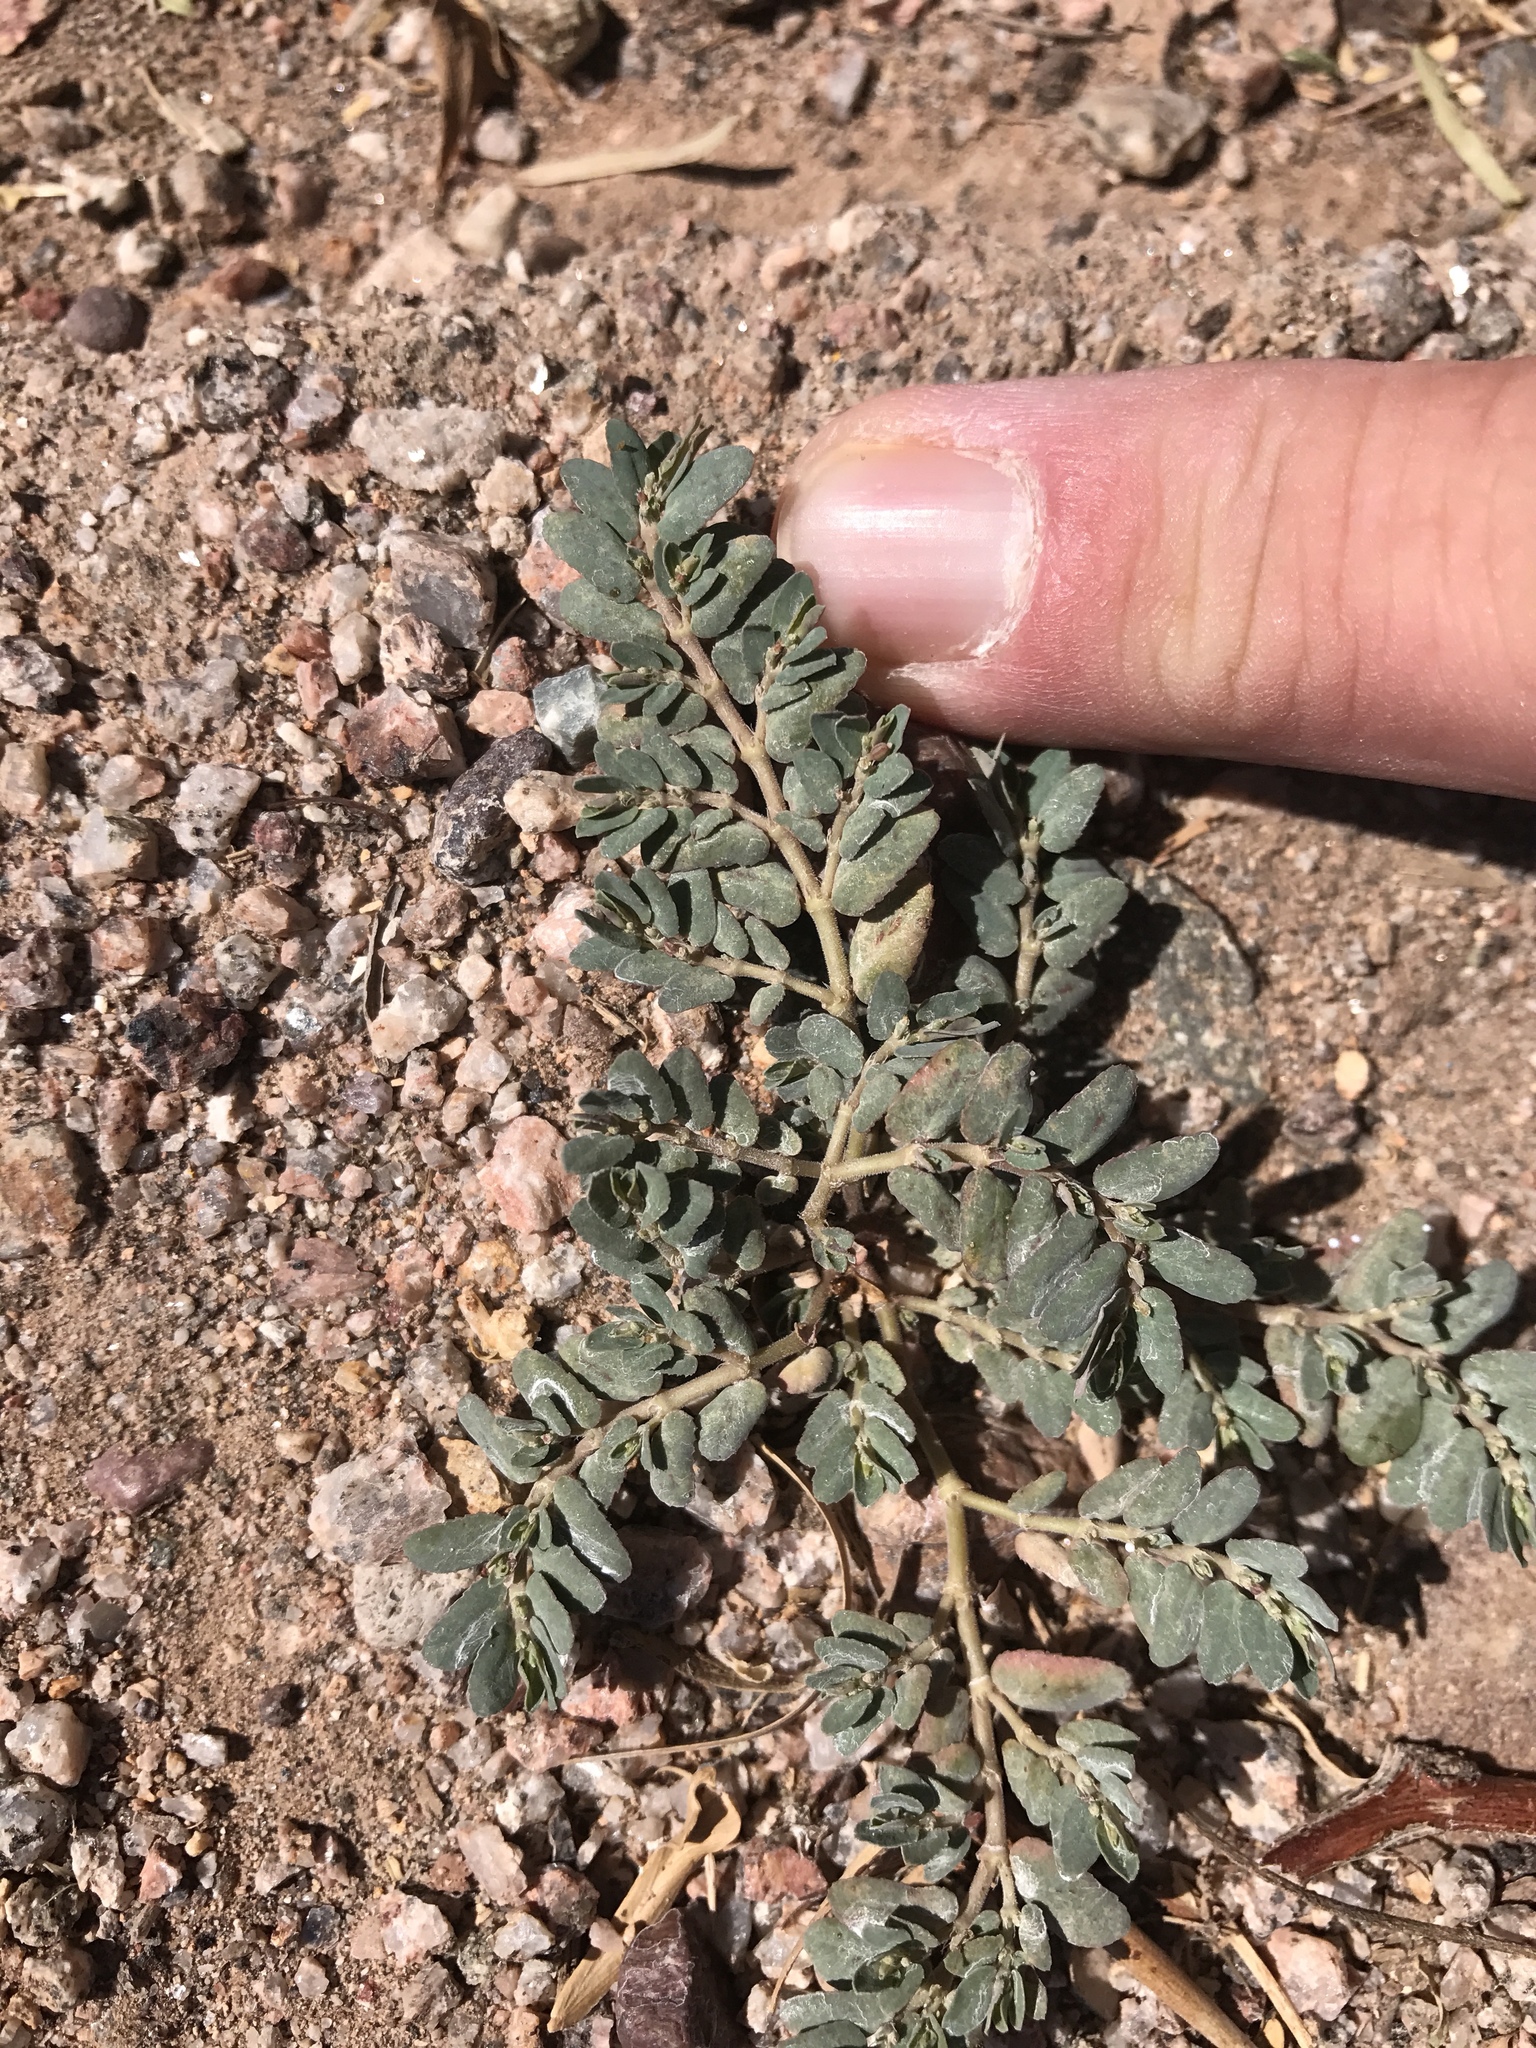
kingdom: Plantae
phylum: Tracheophyta
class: Magnoliopsida
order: Malpighiales
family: Euphorbiaceae
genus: Euphorbia
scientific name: Euphorbia abramsiana
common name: Abram's spurge
